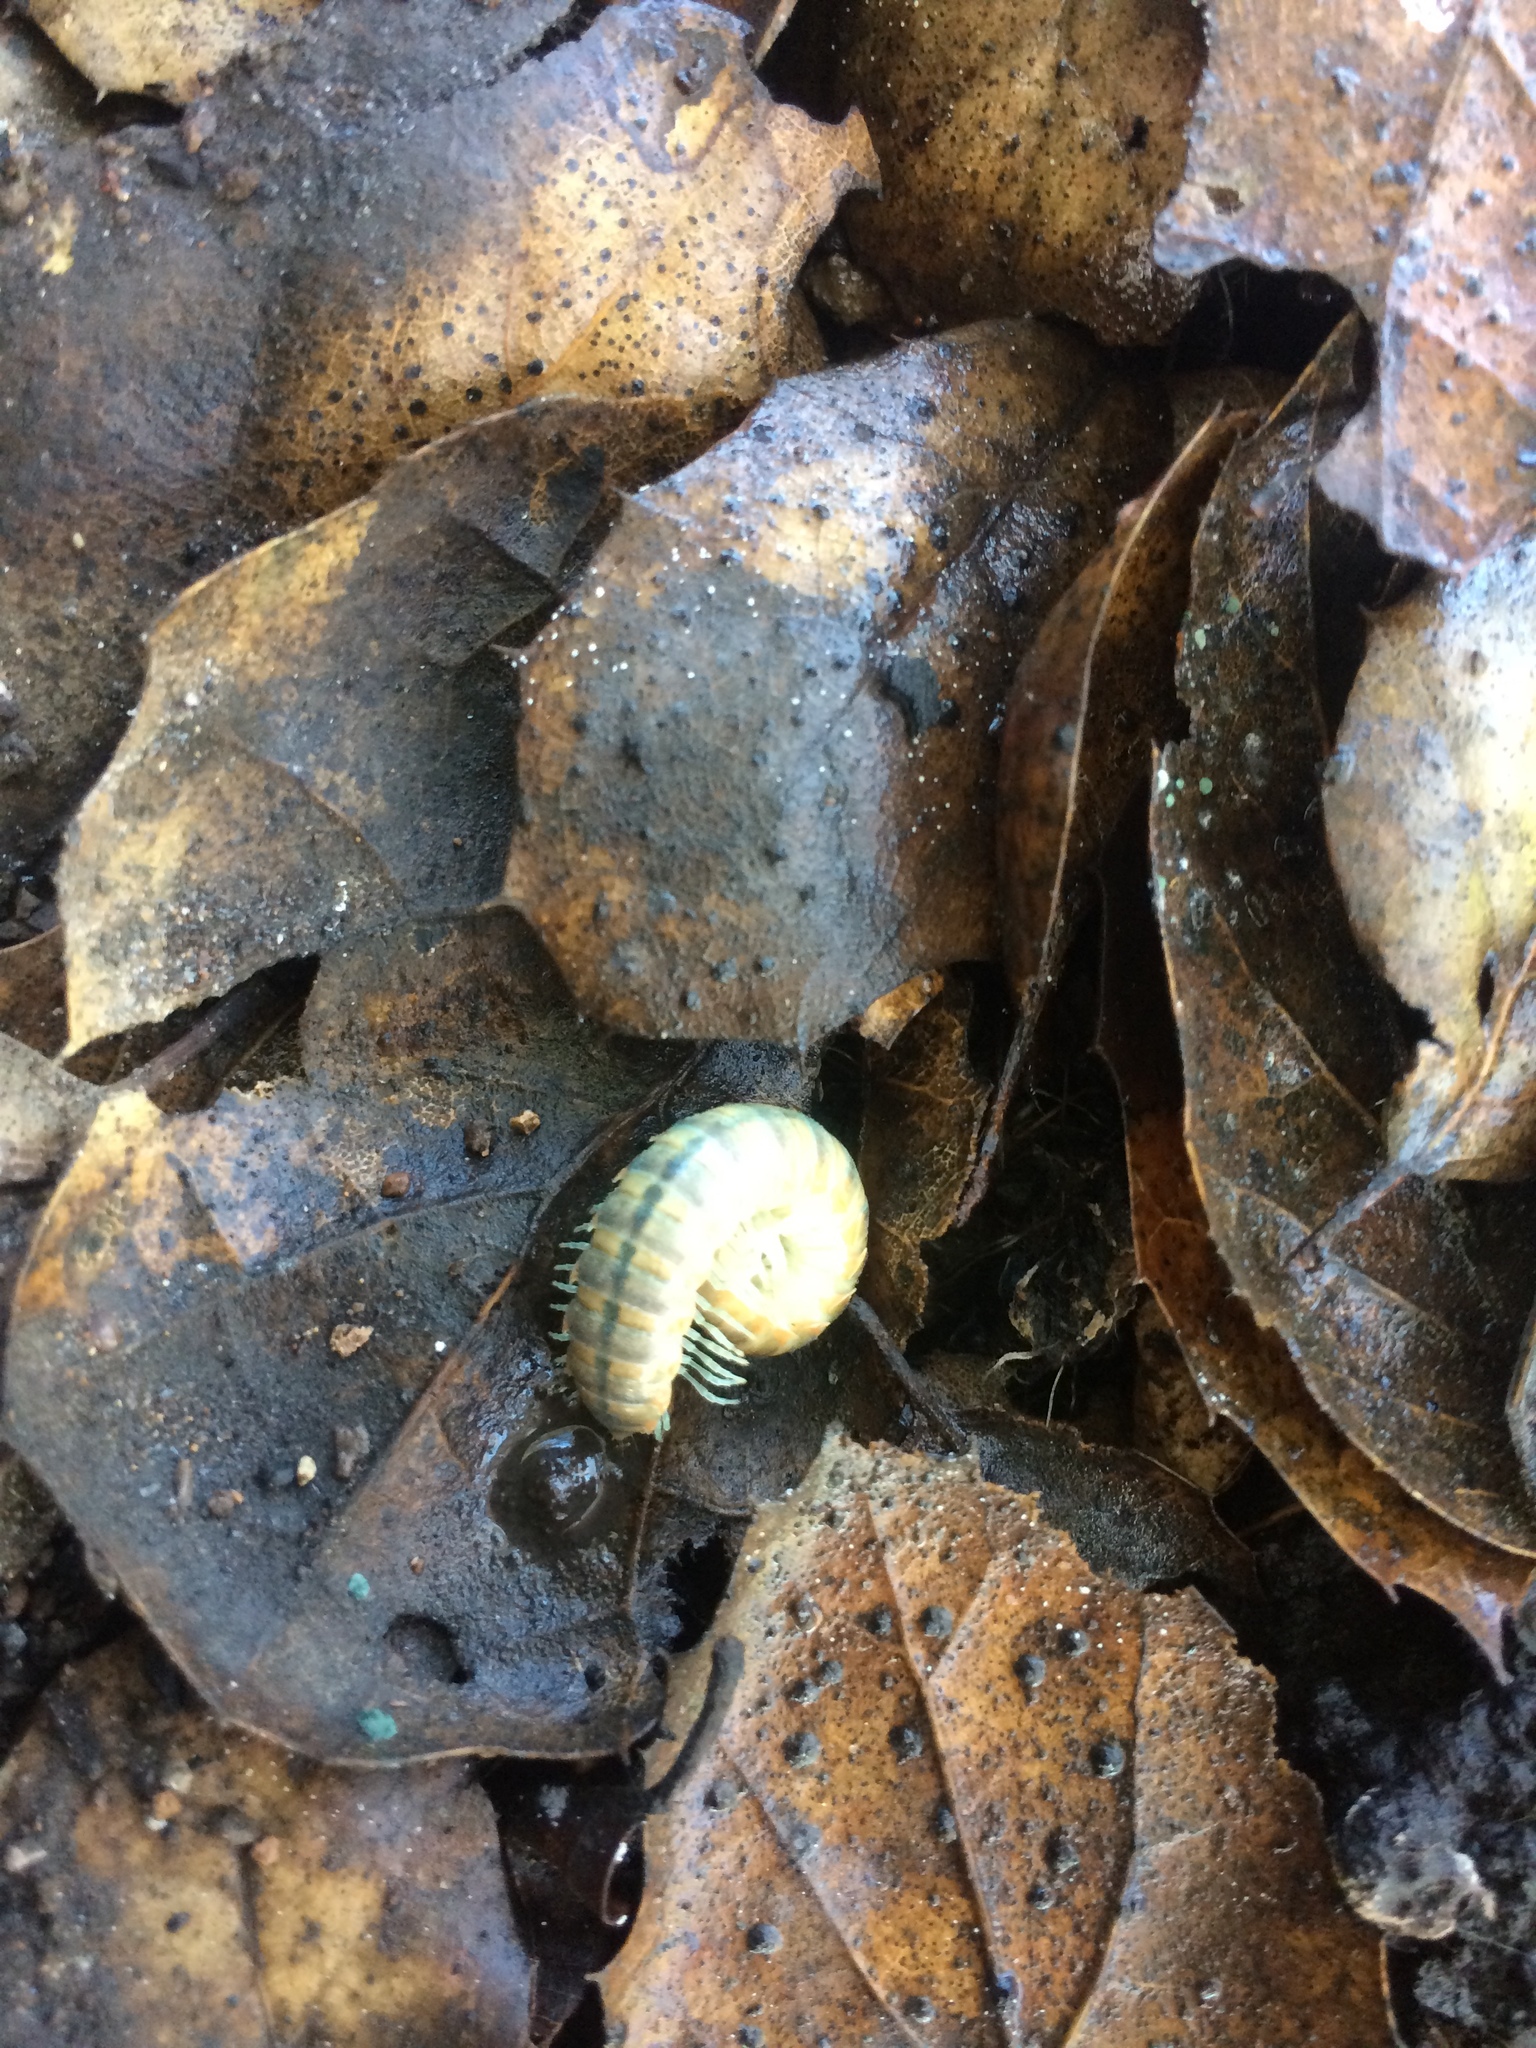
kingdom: Animalia
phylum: Arthropoda
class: Diplopoda
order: Polydesmida
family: Xystodesmidae
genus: Xystocheir
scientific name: Xystocheir dissecta
